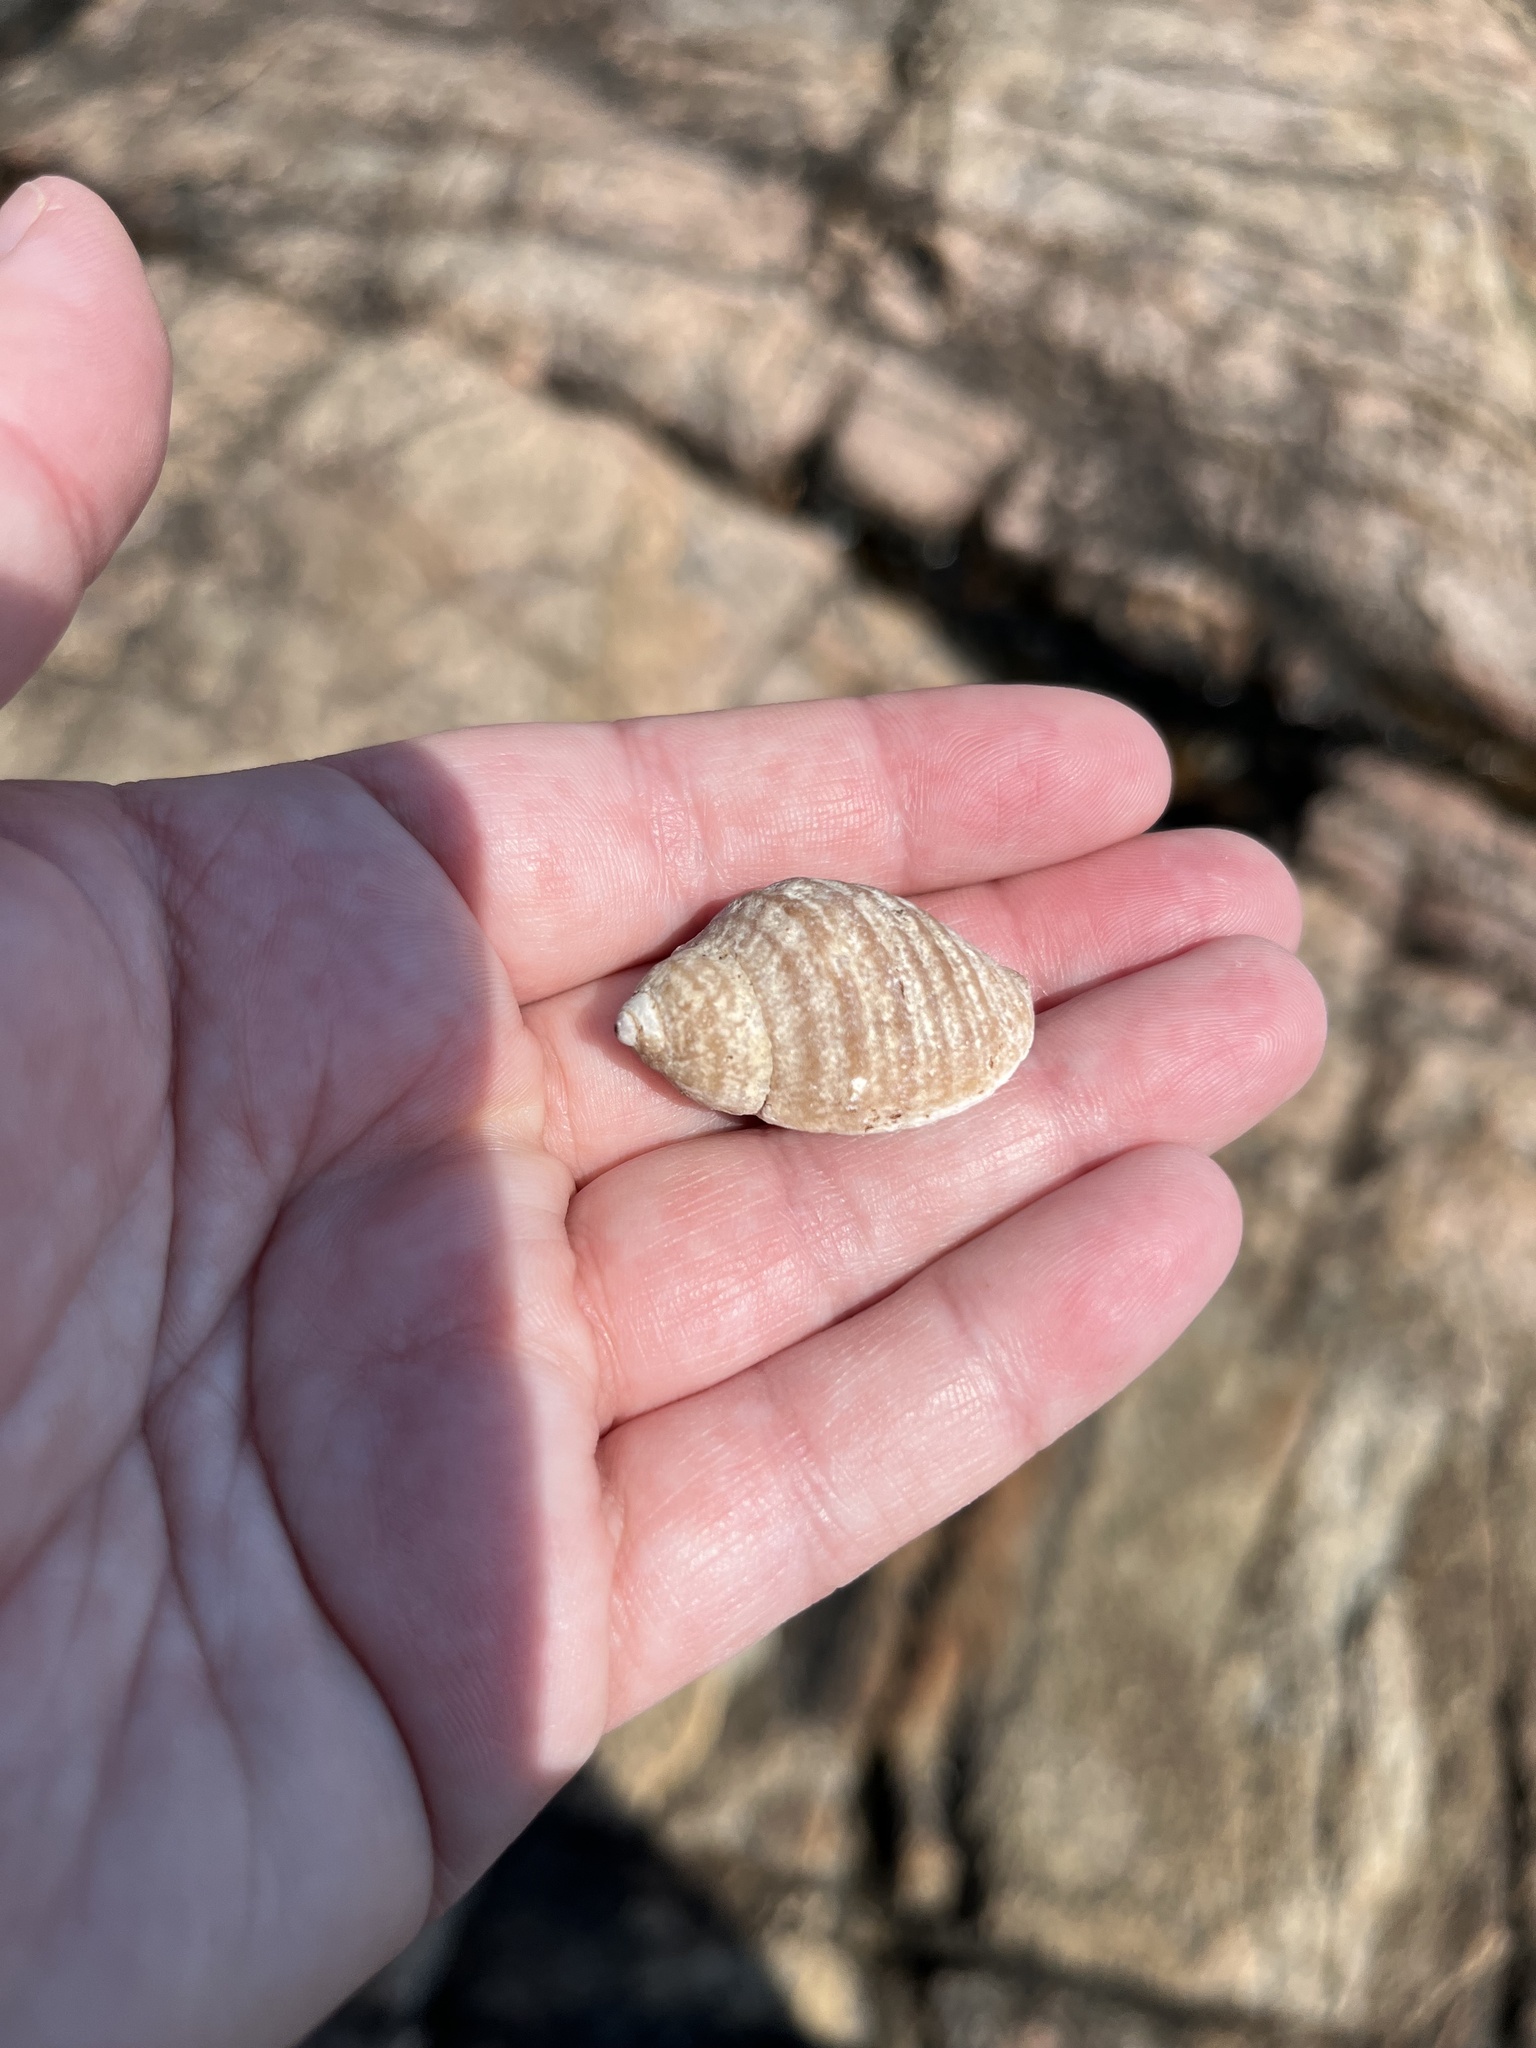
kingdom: Animalia
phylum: Mollusca
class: Gastropoda
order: Neogastropoda
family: Muricidae
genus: Nucella
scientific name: Nucella lapillus
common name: Dog whelk
